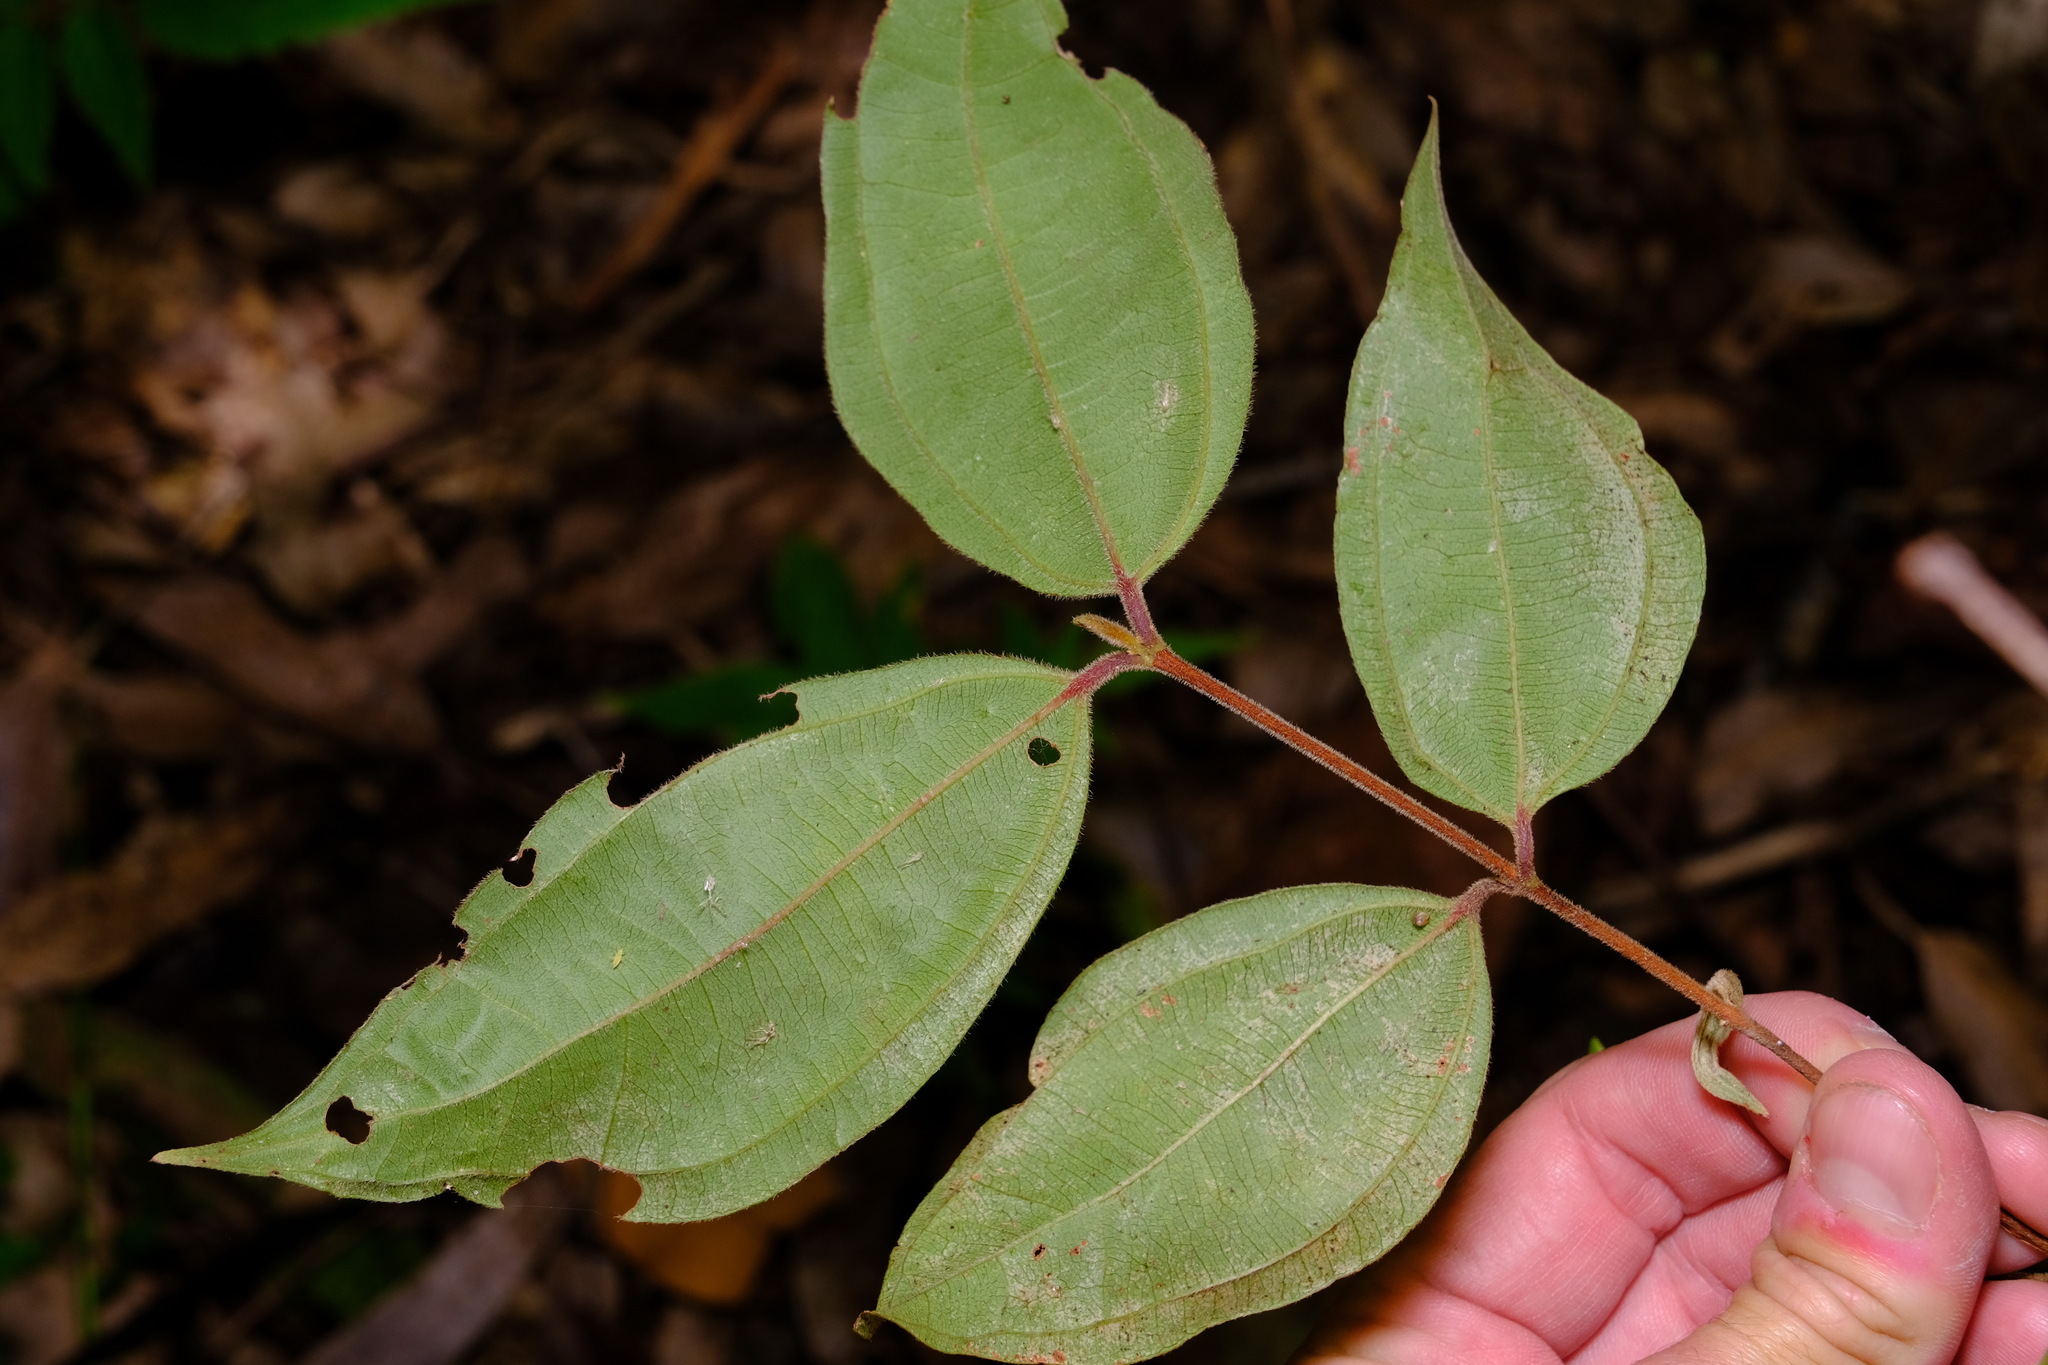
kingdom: Plantae
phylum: Tracheophyta
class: Magnoliopsida
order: Myrtales
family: Myrtaceae
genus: Rhodamnia
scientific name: Rhodamnia rubescens
